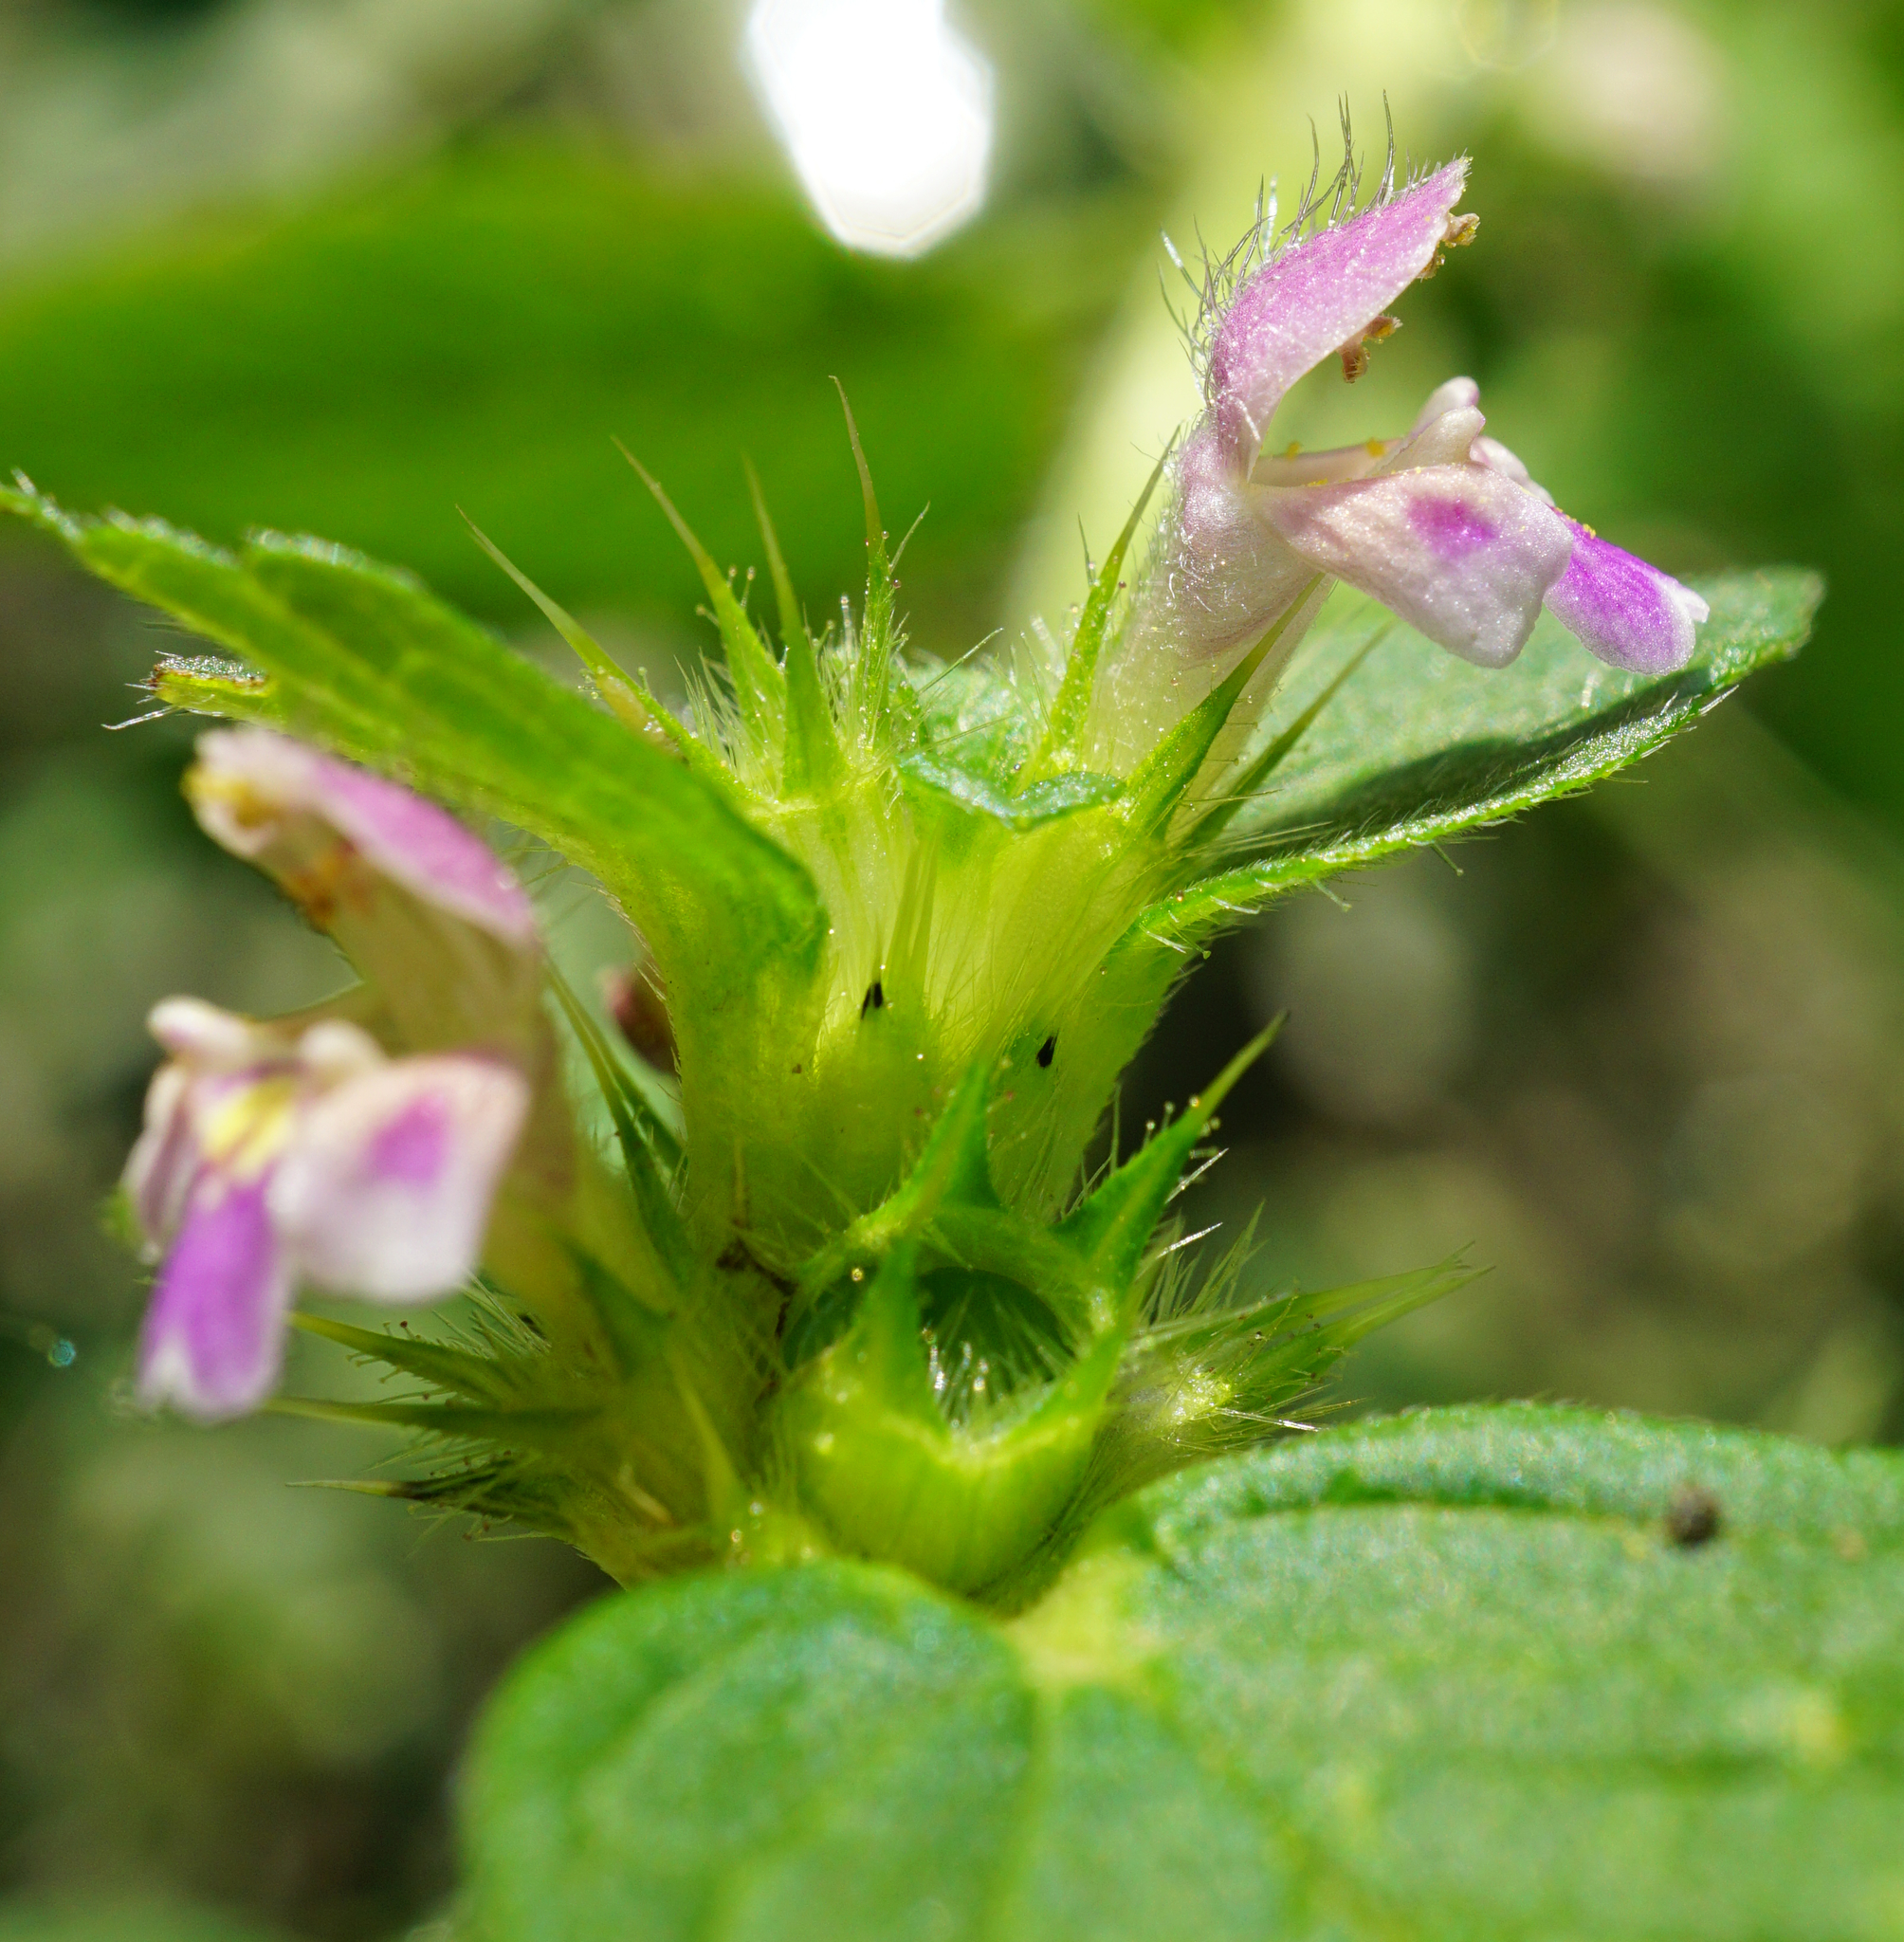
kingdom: Plantae
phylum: Tracheophyta
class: Magnoliopsida
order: Lamiales
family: Lamiaceae
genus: Galeopsis
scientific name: Galeopsis bifida
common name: Bifid hemp-nettle
